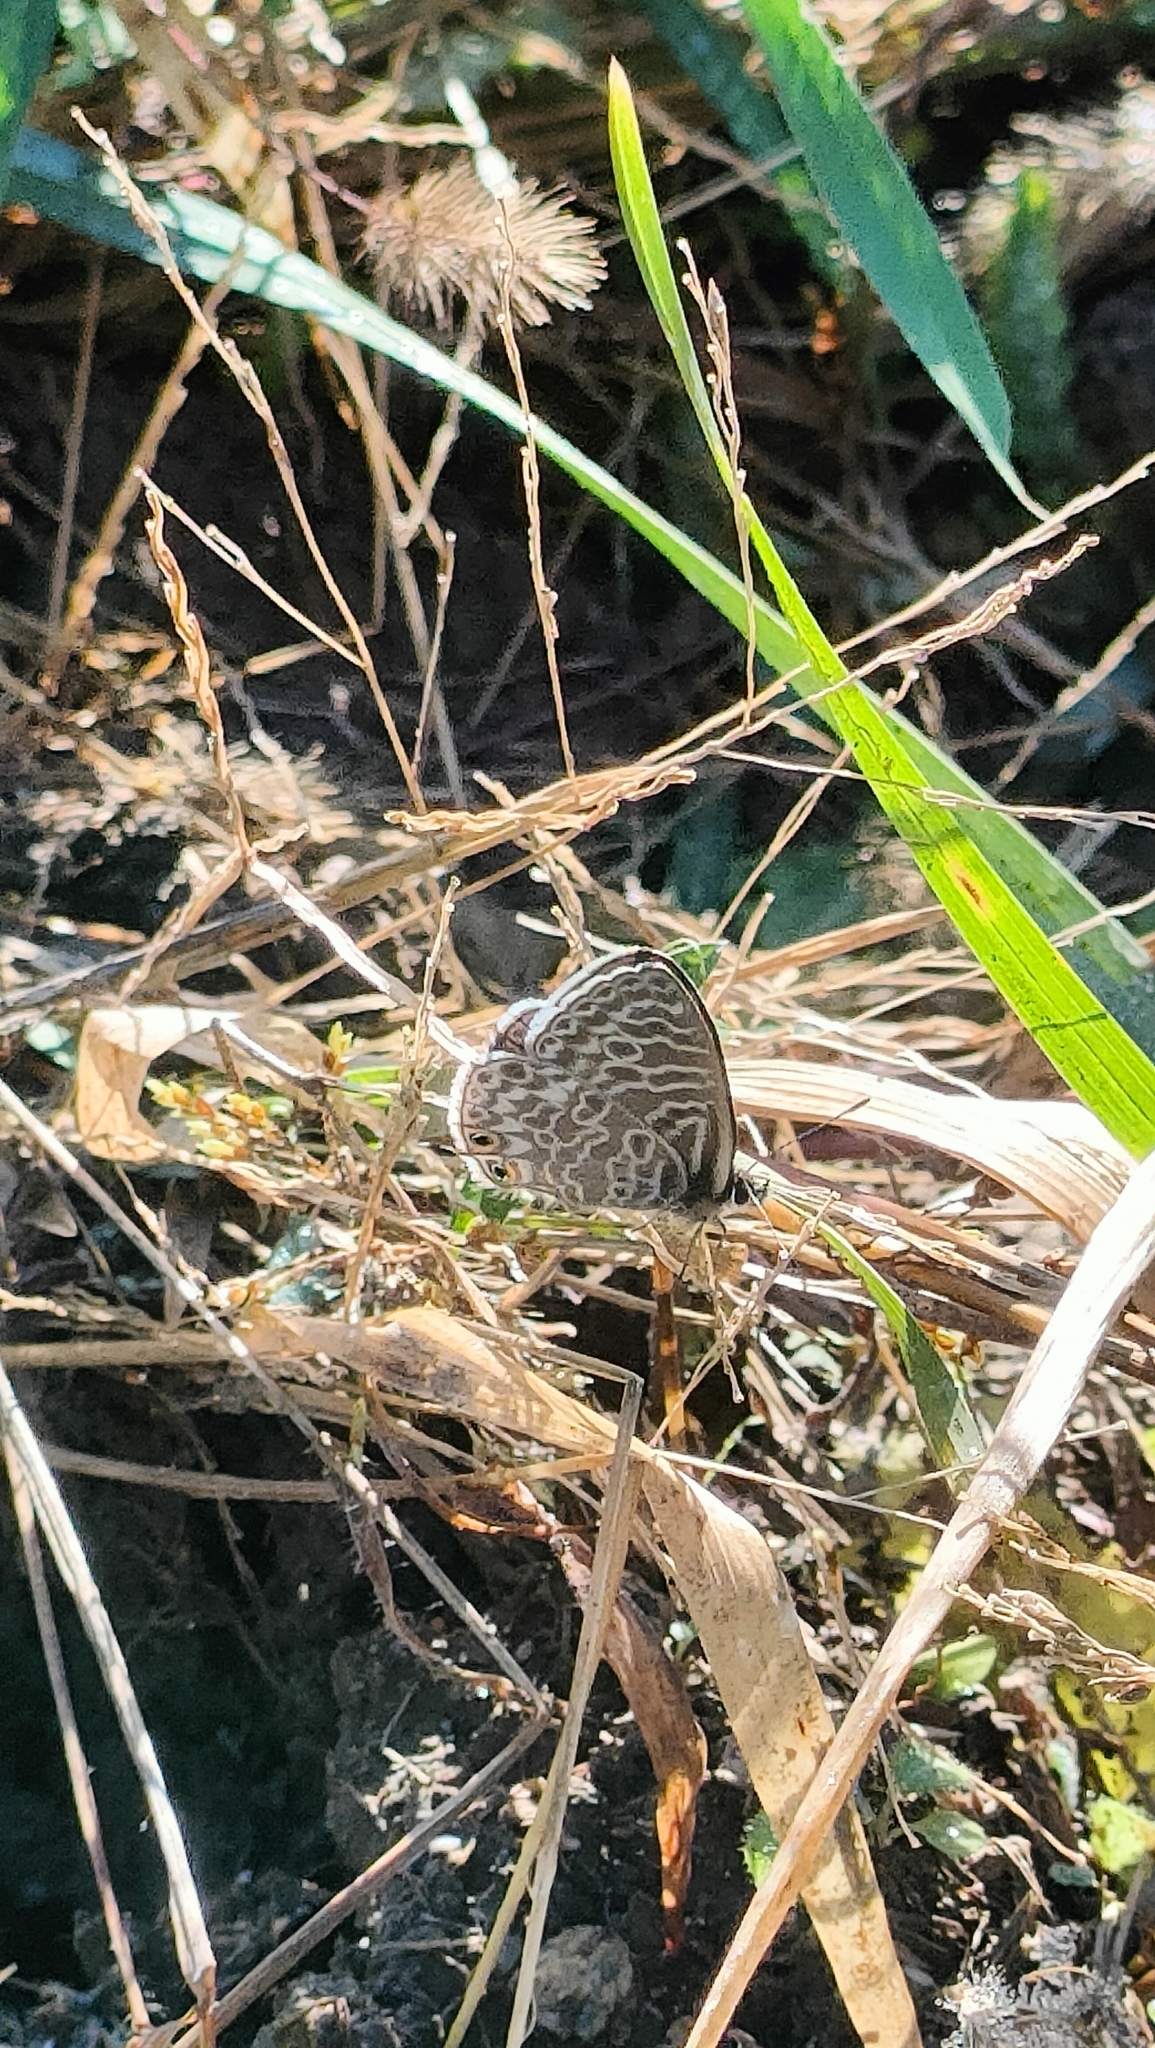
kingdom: Animalia
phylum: Arthropoda
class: Insecta
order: Lepidoptera
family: Lycaenidae
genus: Leptotes
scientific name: Leptotes pirithous
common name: Lang's short-tailed blue
